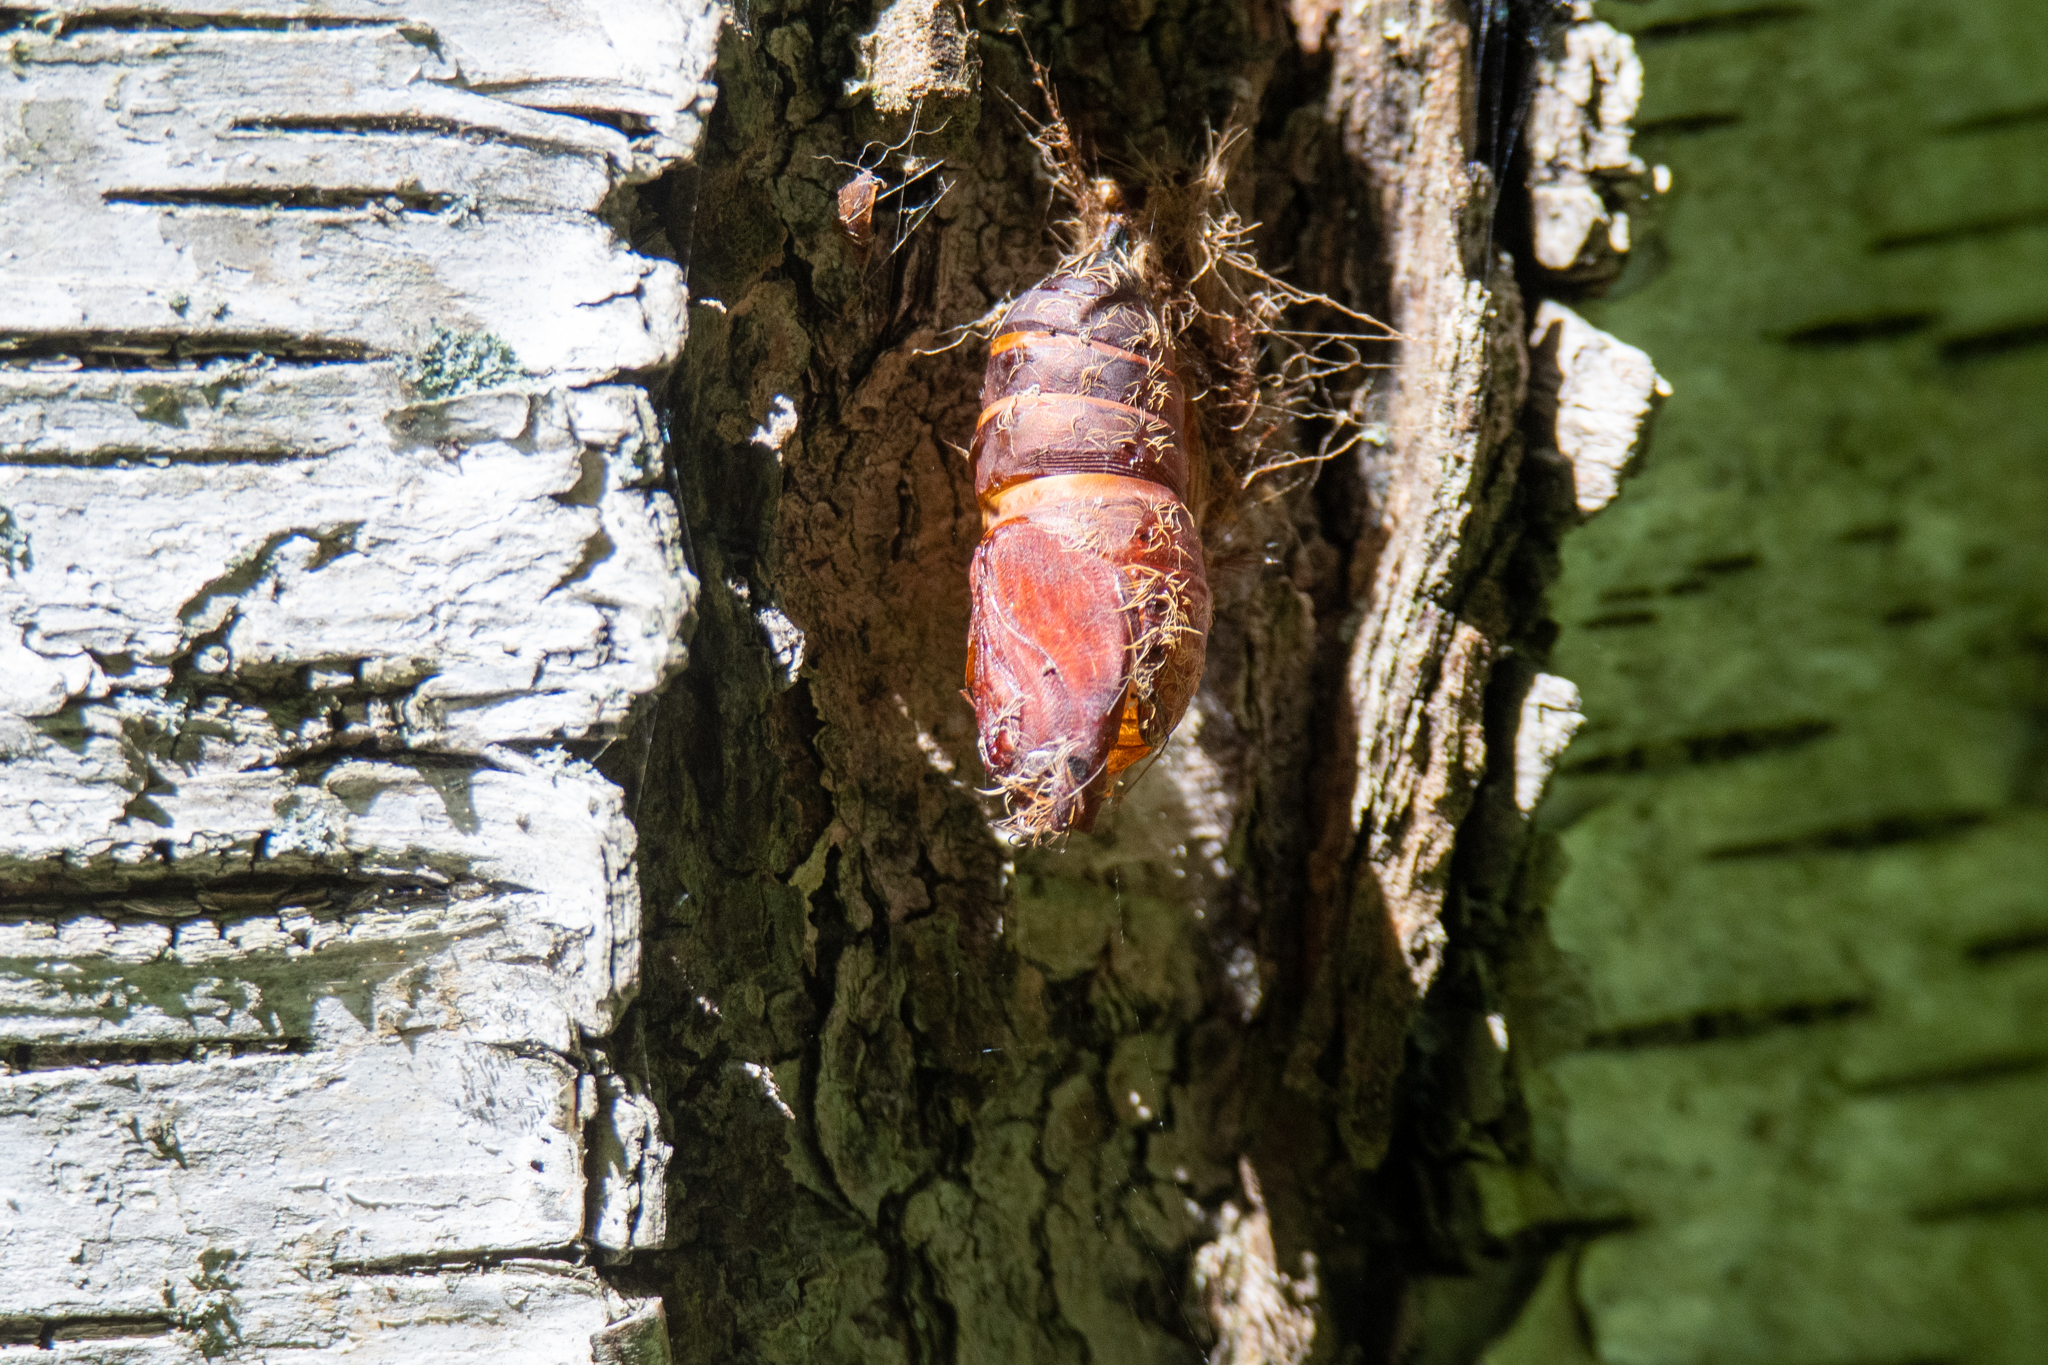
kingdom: Animalia
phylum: Arthropoda
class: Insecta
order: Lepidoptera
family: Erebidae
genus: Lymantria
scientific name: Lymantria dispar
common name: Gypsy moth
